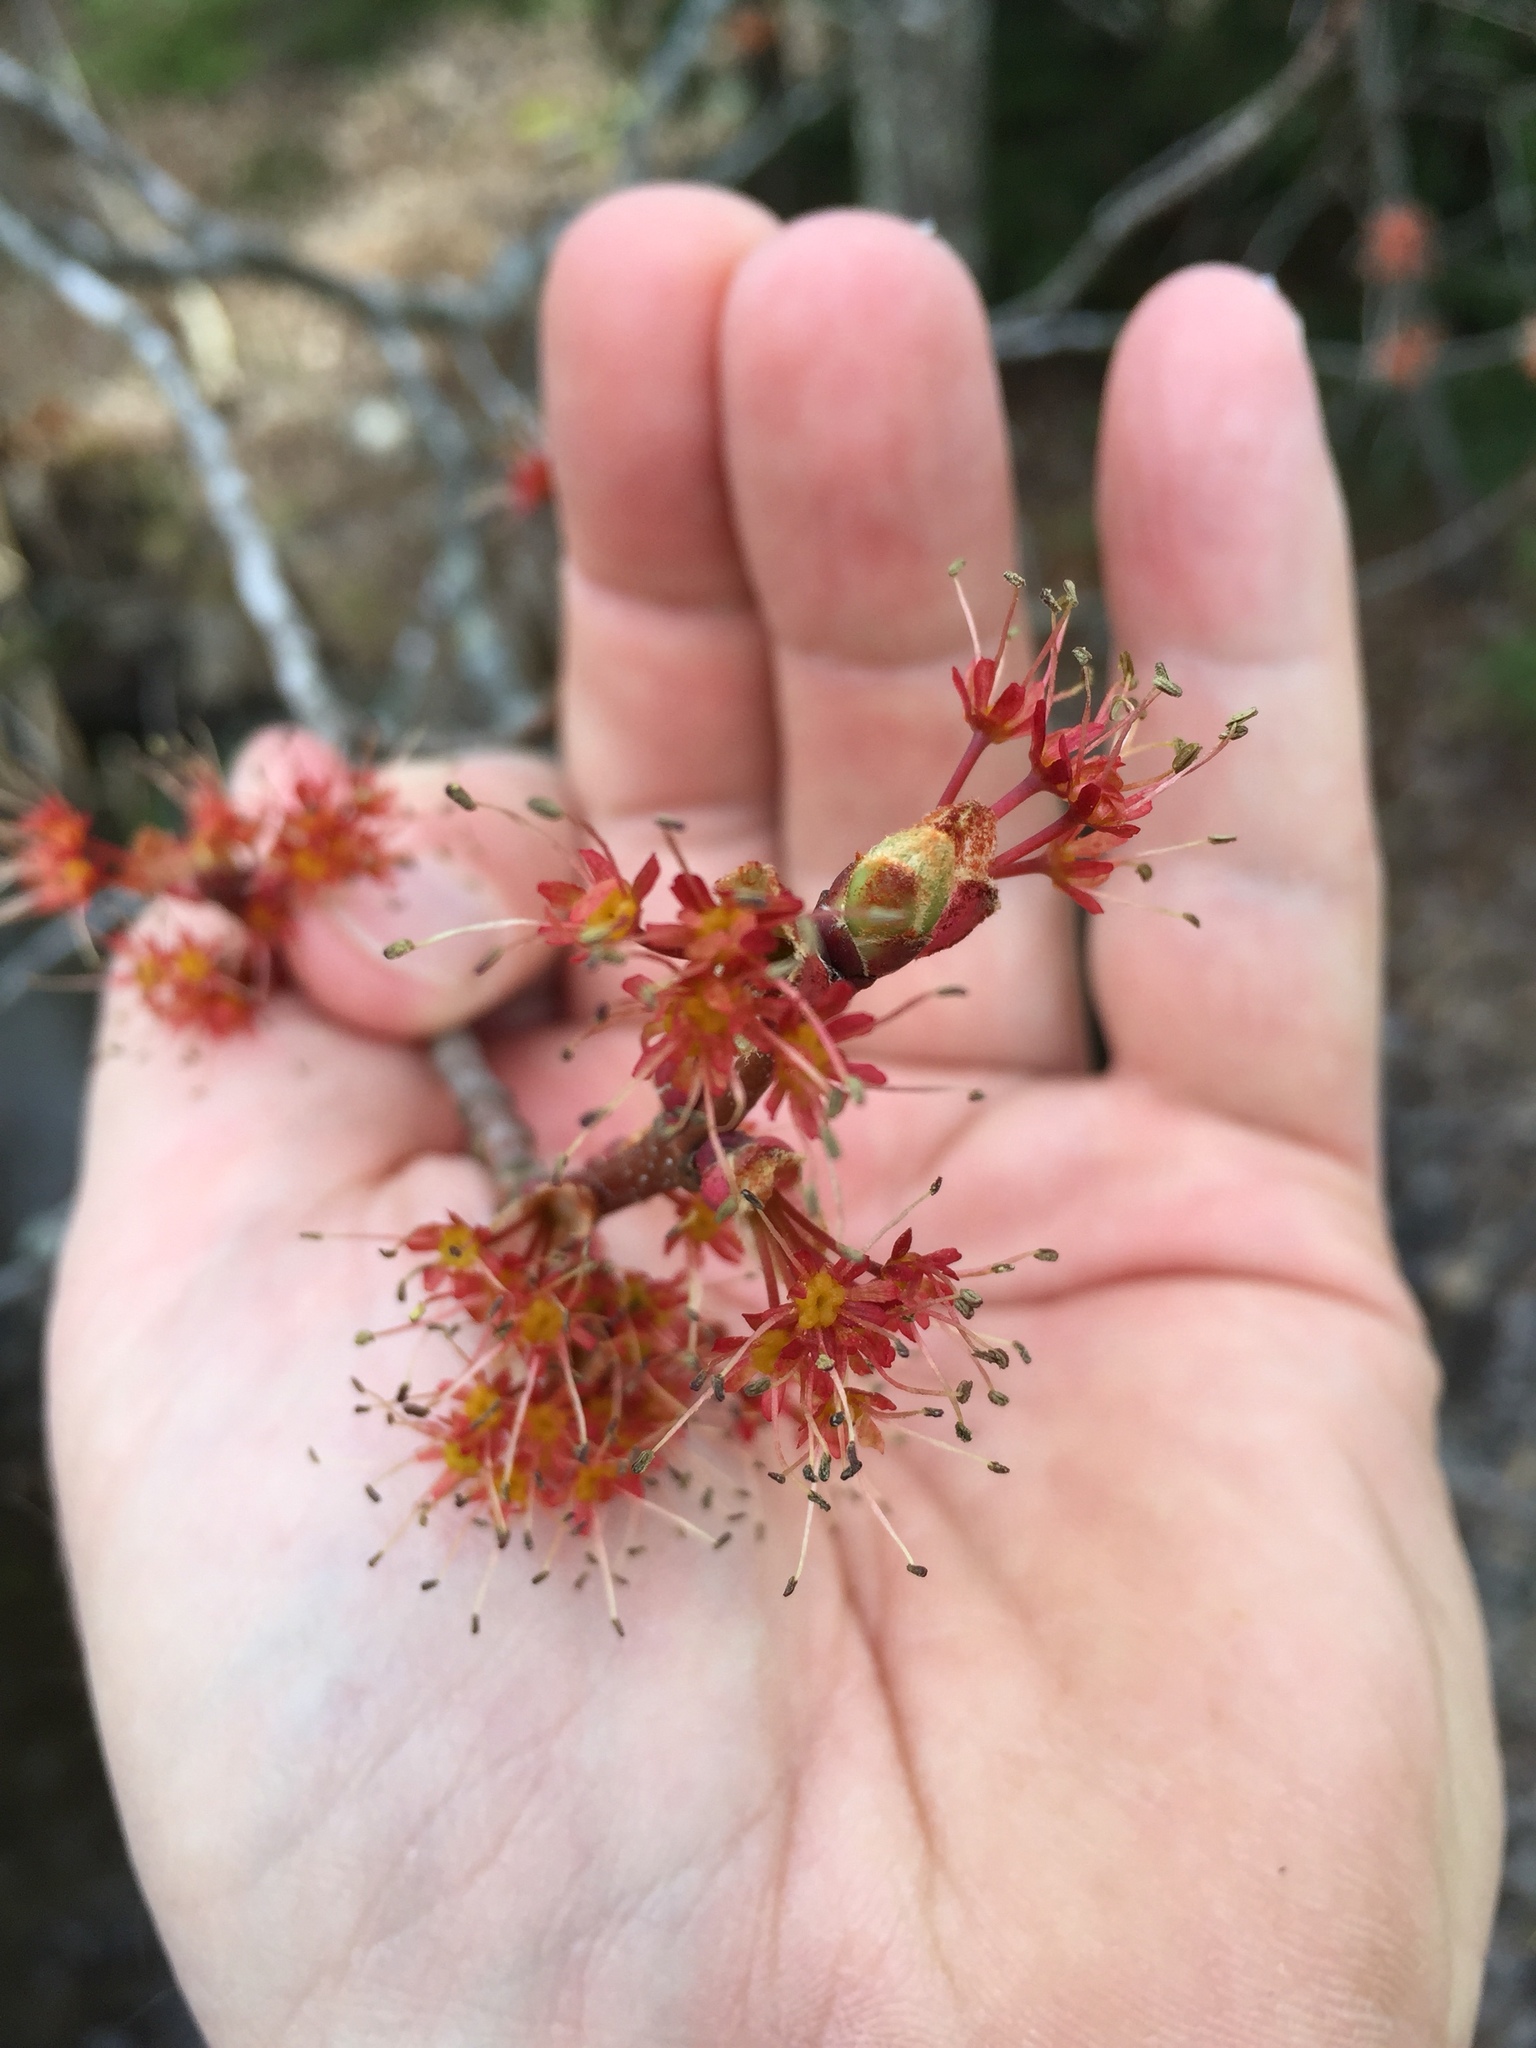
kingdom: Plantae
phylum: Tracheophyta
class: Magnoliopsida
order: Sapindales
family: Sapindaceae
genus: Acer
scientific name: Acer rubrum
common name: Red maple
